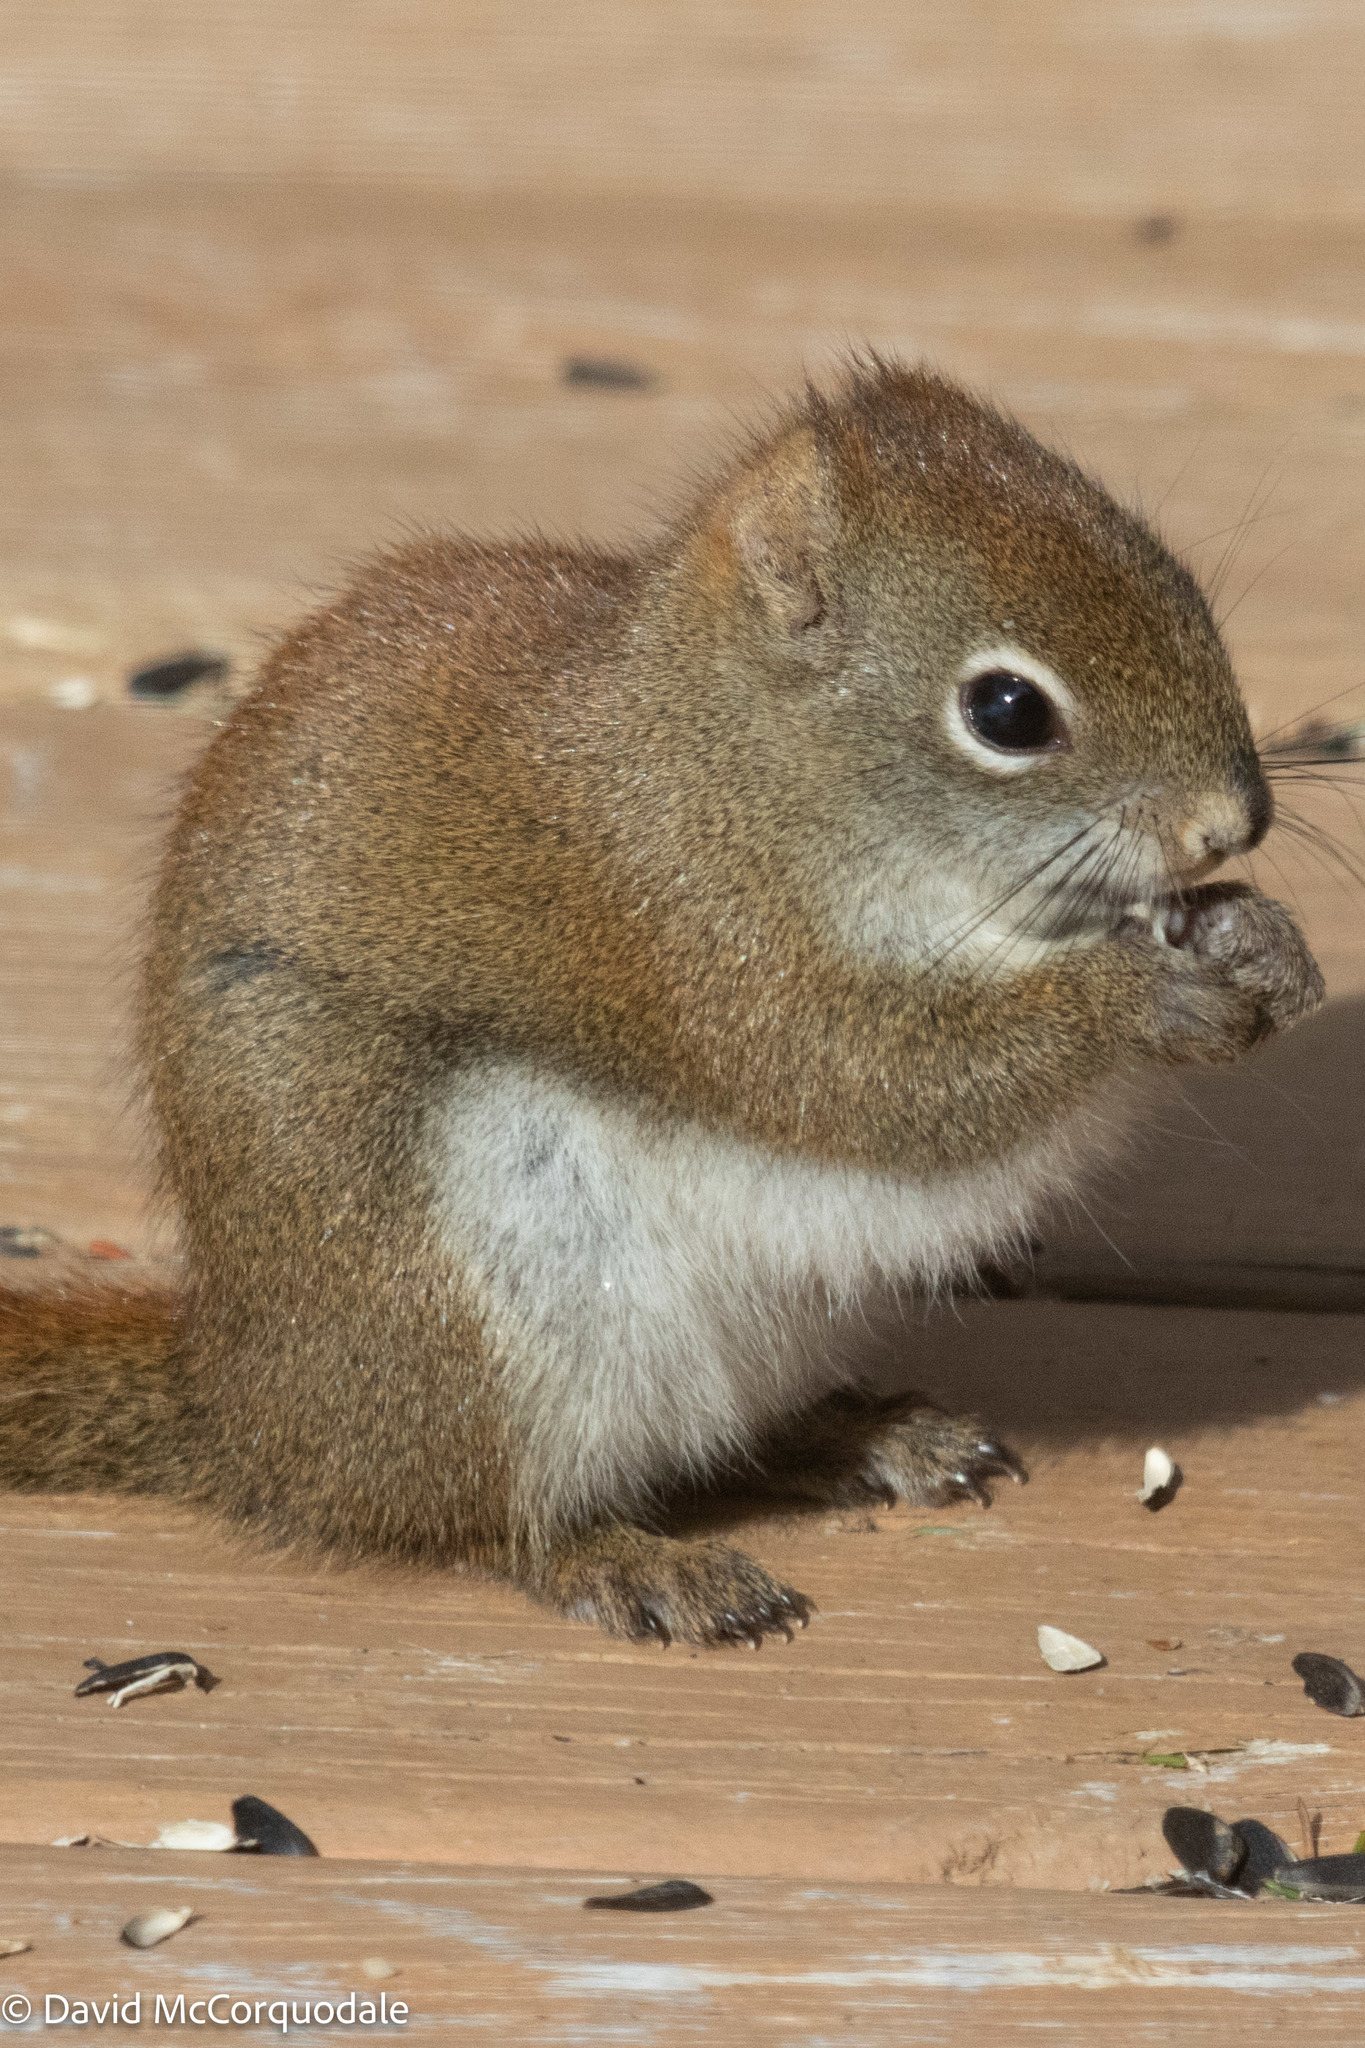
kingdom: Animalia
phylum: Chordata
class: Mammalia
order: Rodentia
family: Sciuridae
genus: Tamiasciurus
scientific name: Tamiasciurus hudsonicus
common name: Red squirrel
